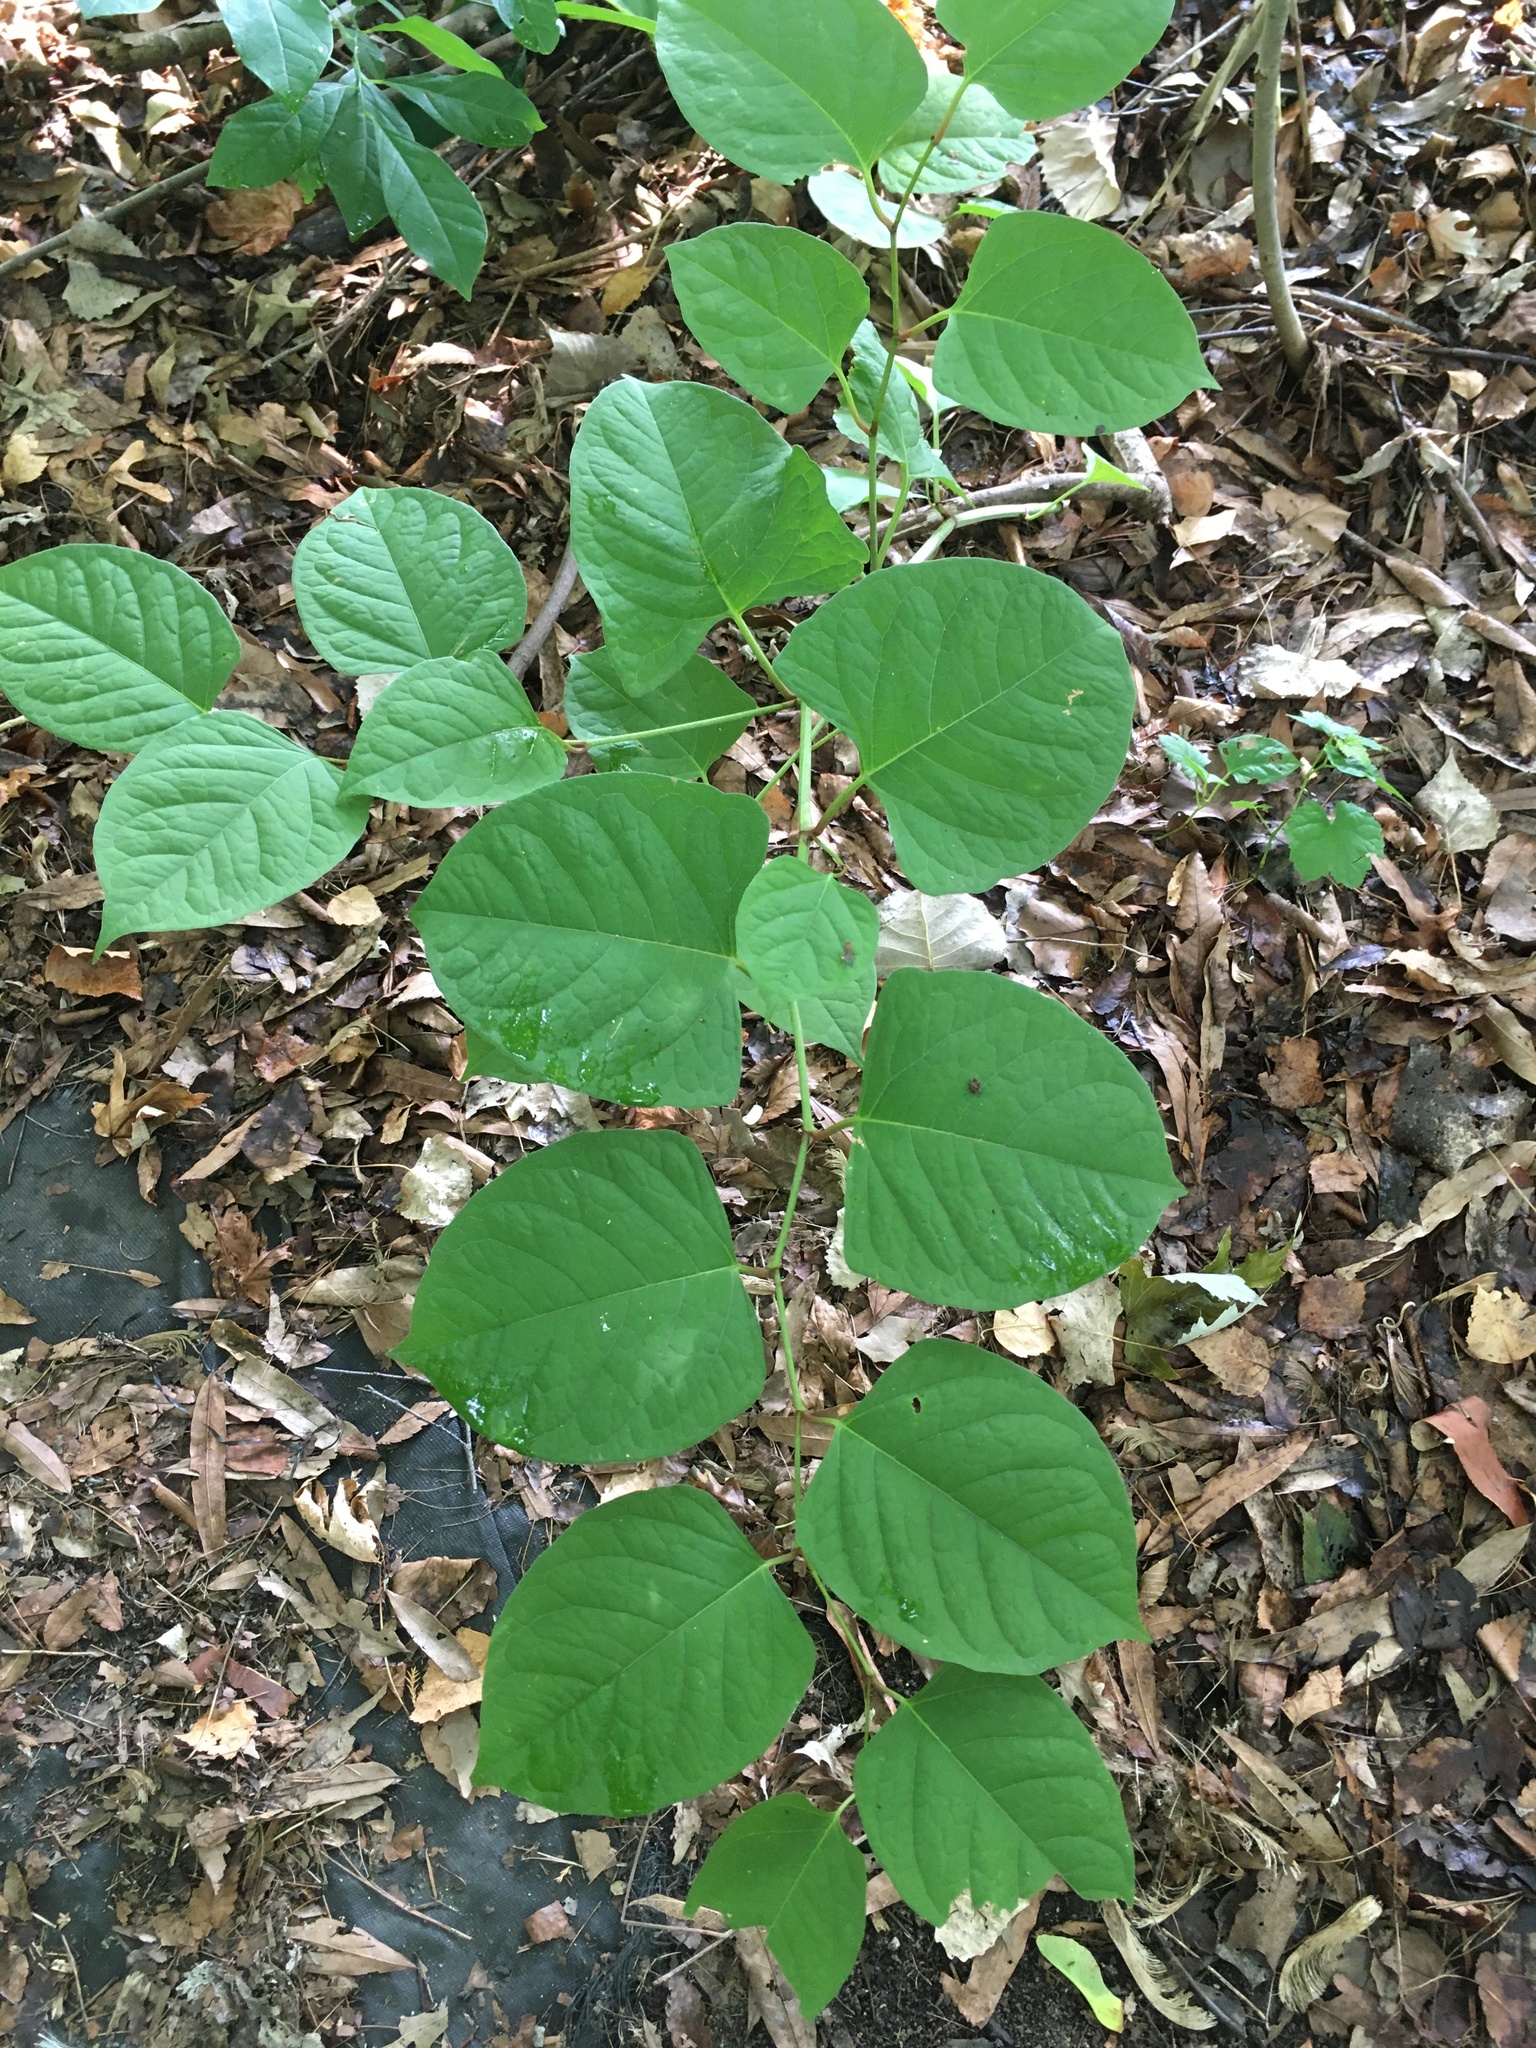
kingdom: Plantae
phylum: Tracheophyta
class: Magnoliopsida
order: Caryophyllales
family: Polygonaceae
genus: Reynoutria
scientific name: Reynoutria japonica
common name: Japanese knotweed
